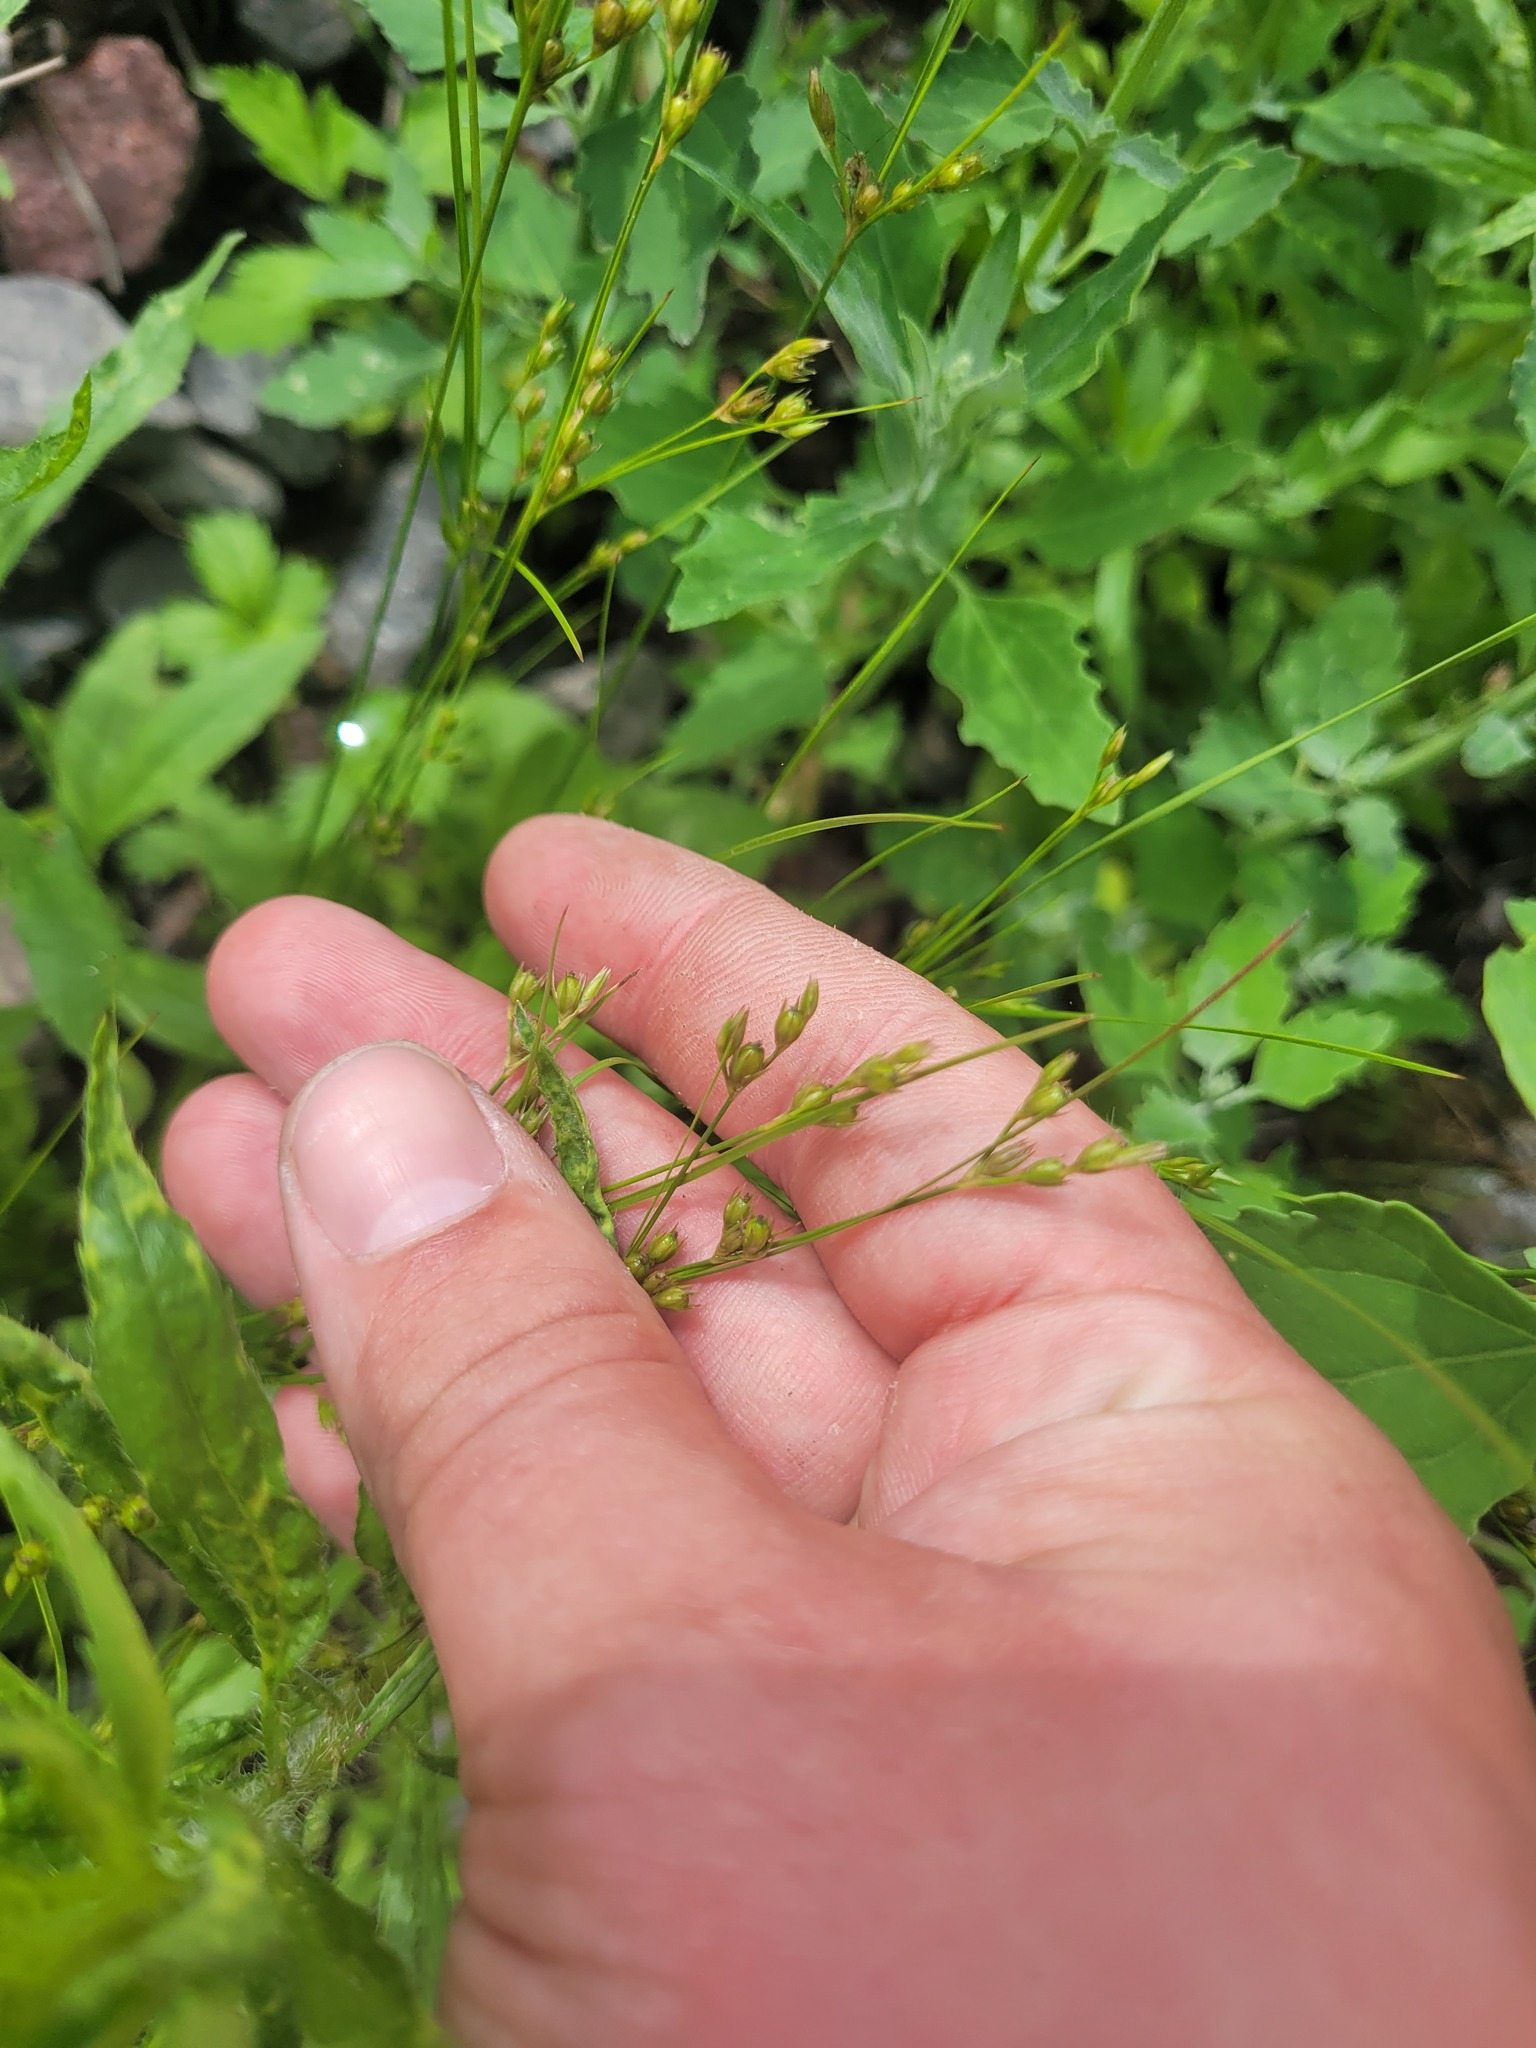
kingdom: Plantae
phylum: Tracheophyta
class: Liliopsida
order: Poales
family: Juncaceae
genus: Juncus
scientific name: Juncus tenuis
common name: Slender rush
